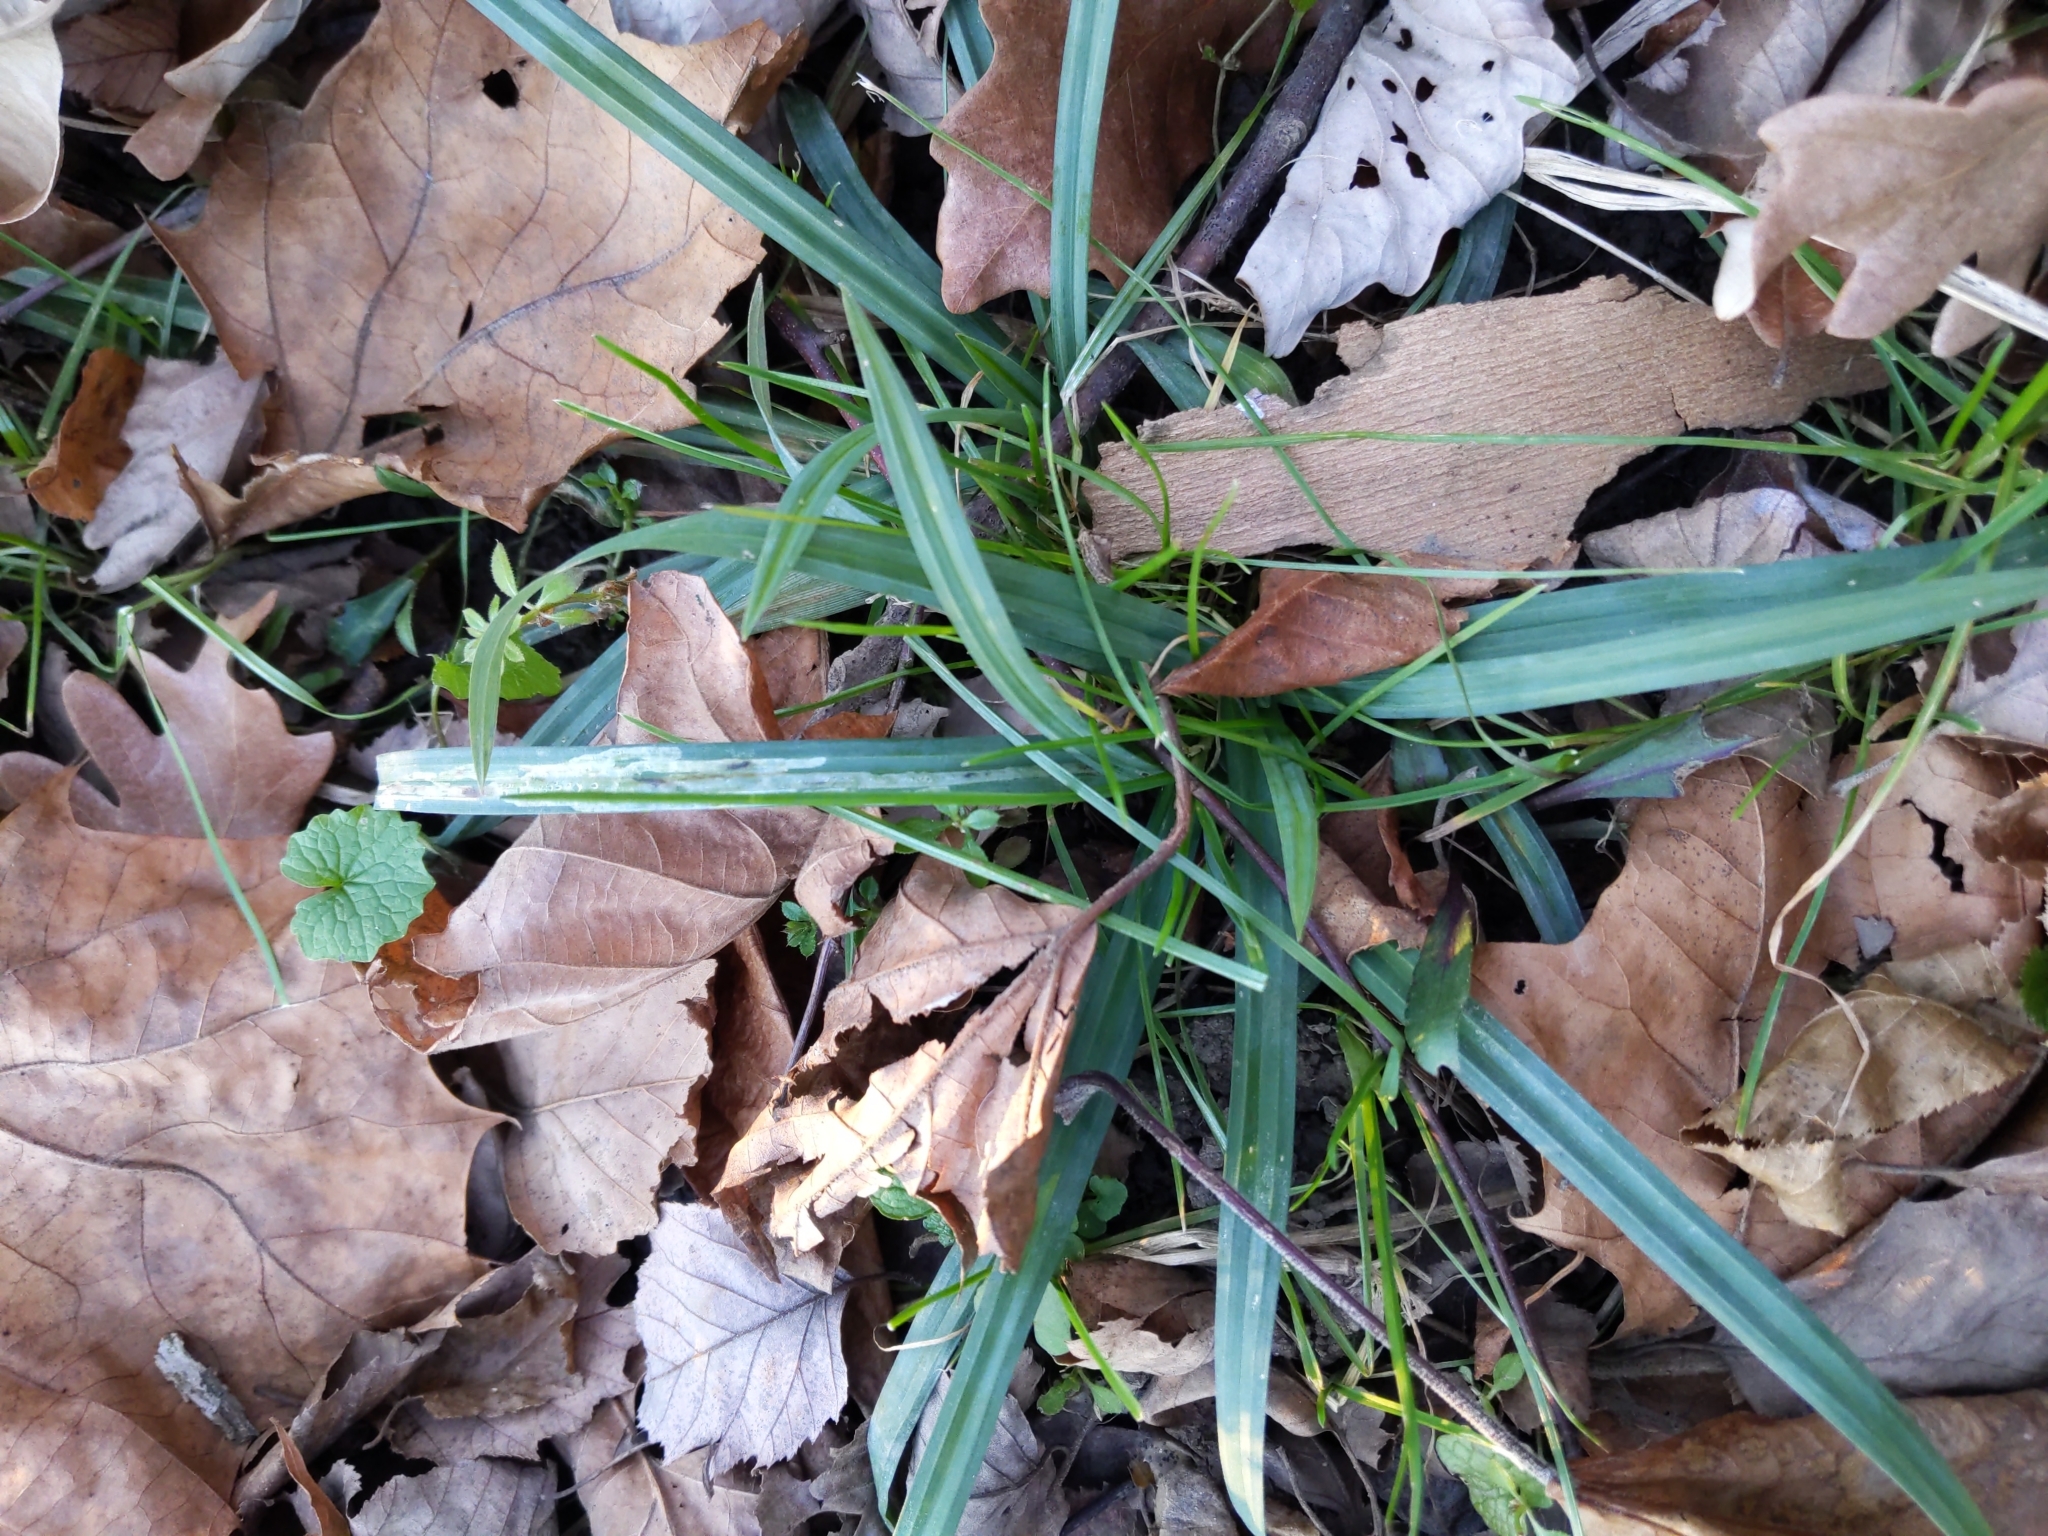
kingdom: Plantae
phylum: Tracheophyta
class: Liliopsida
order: Poales
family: Cyperaceae
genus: Carex
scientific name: Carex
